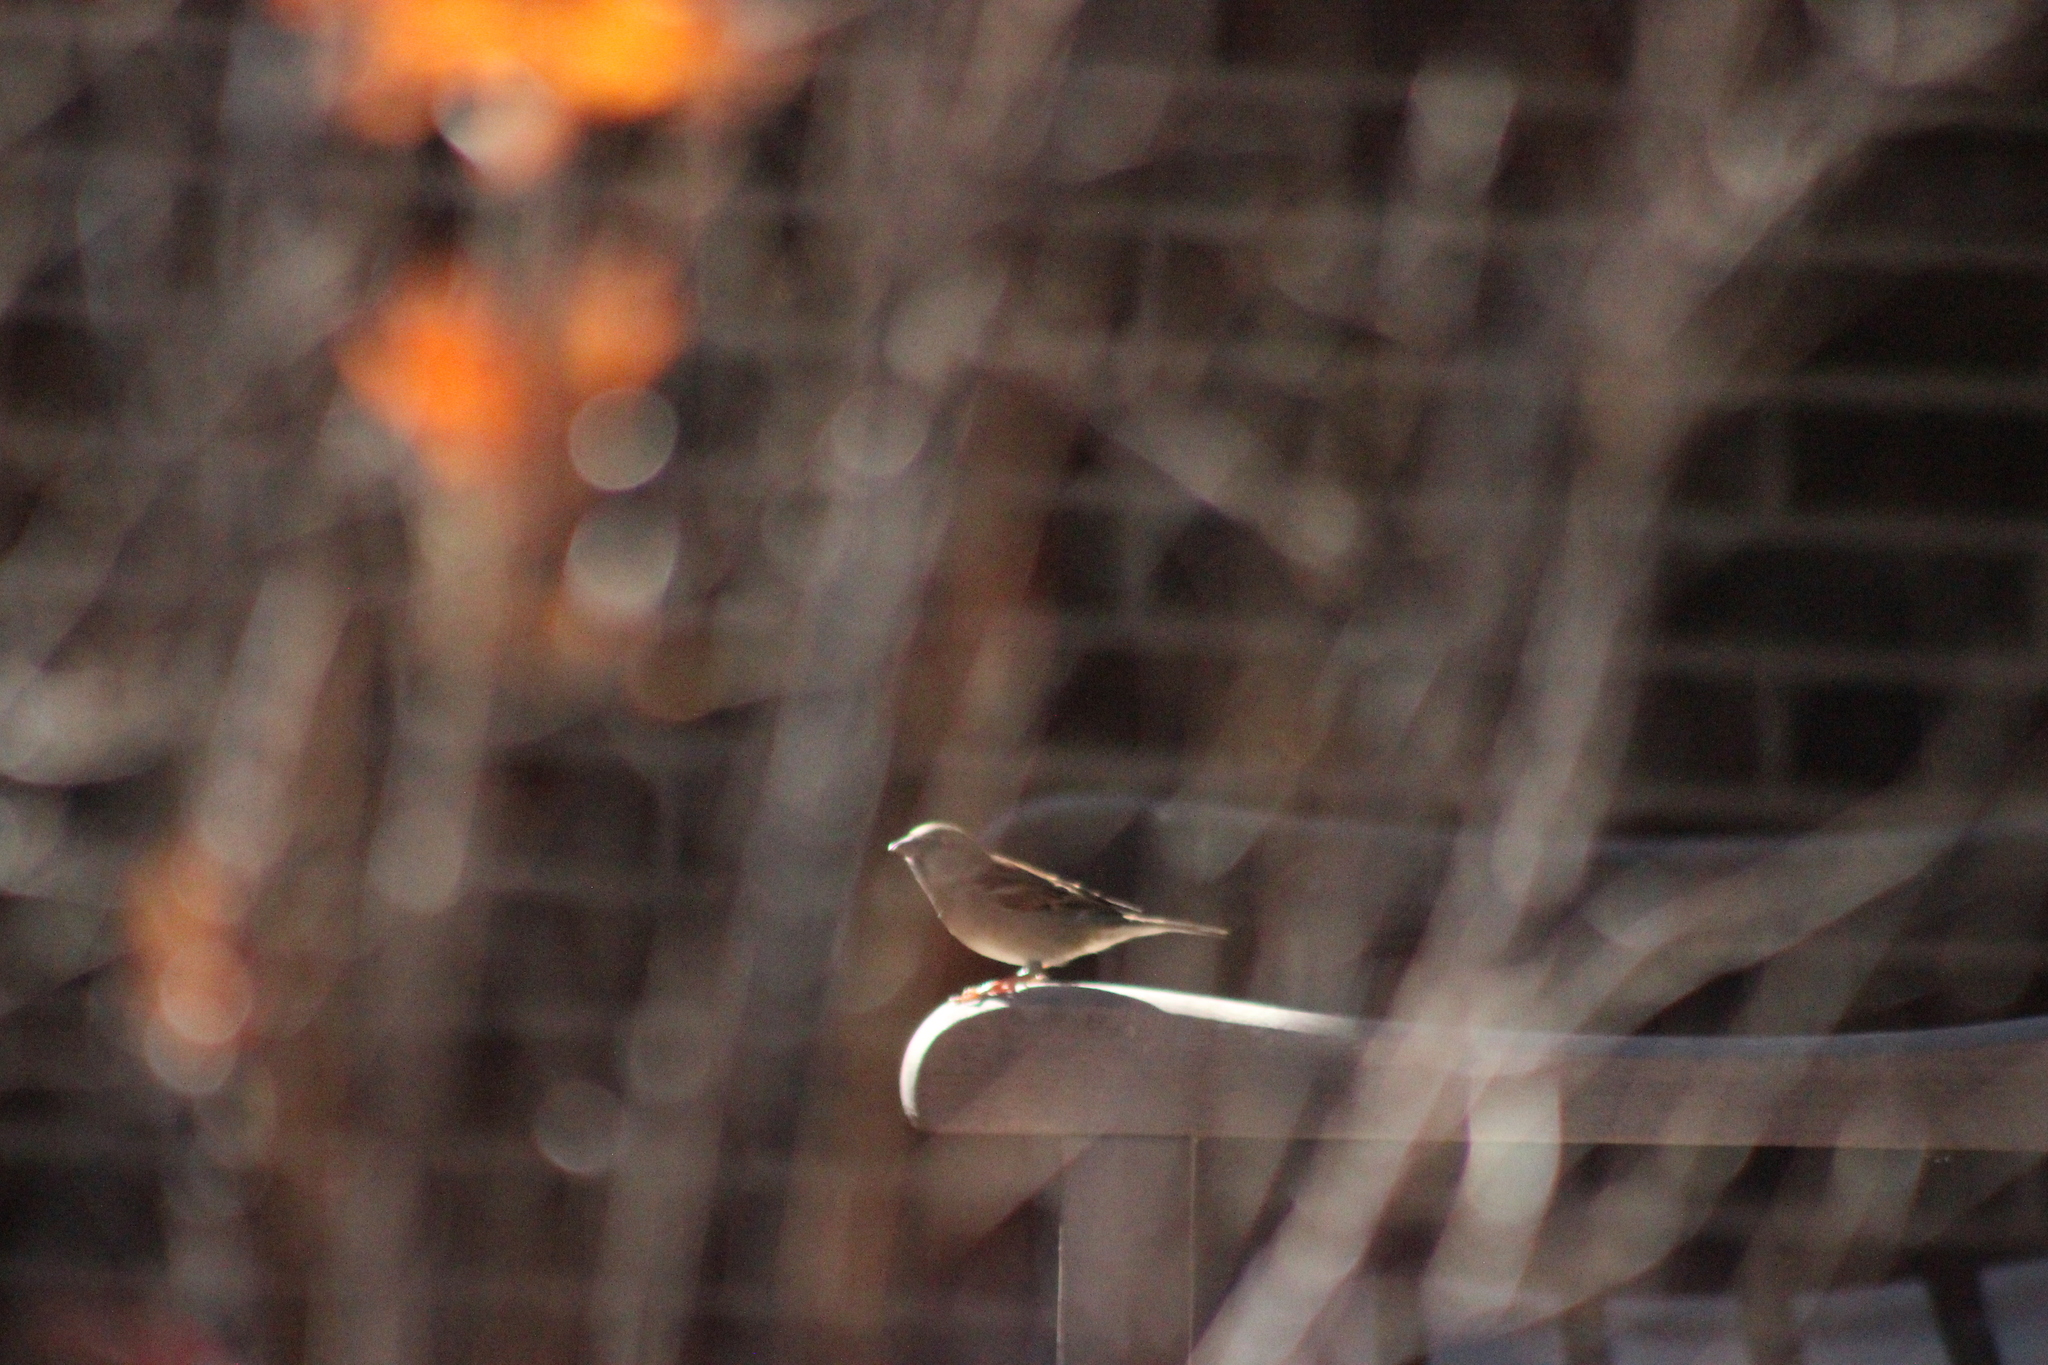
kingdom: Animalia
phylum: Chordata
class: Aves
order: Passeriformes
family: Passeridae
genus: Passer
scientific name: Passer domesticus
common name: House sparrow
